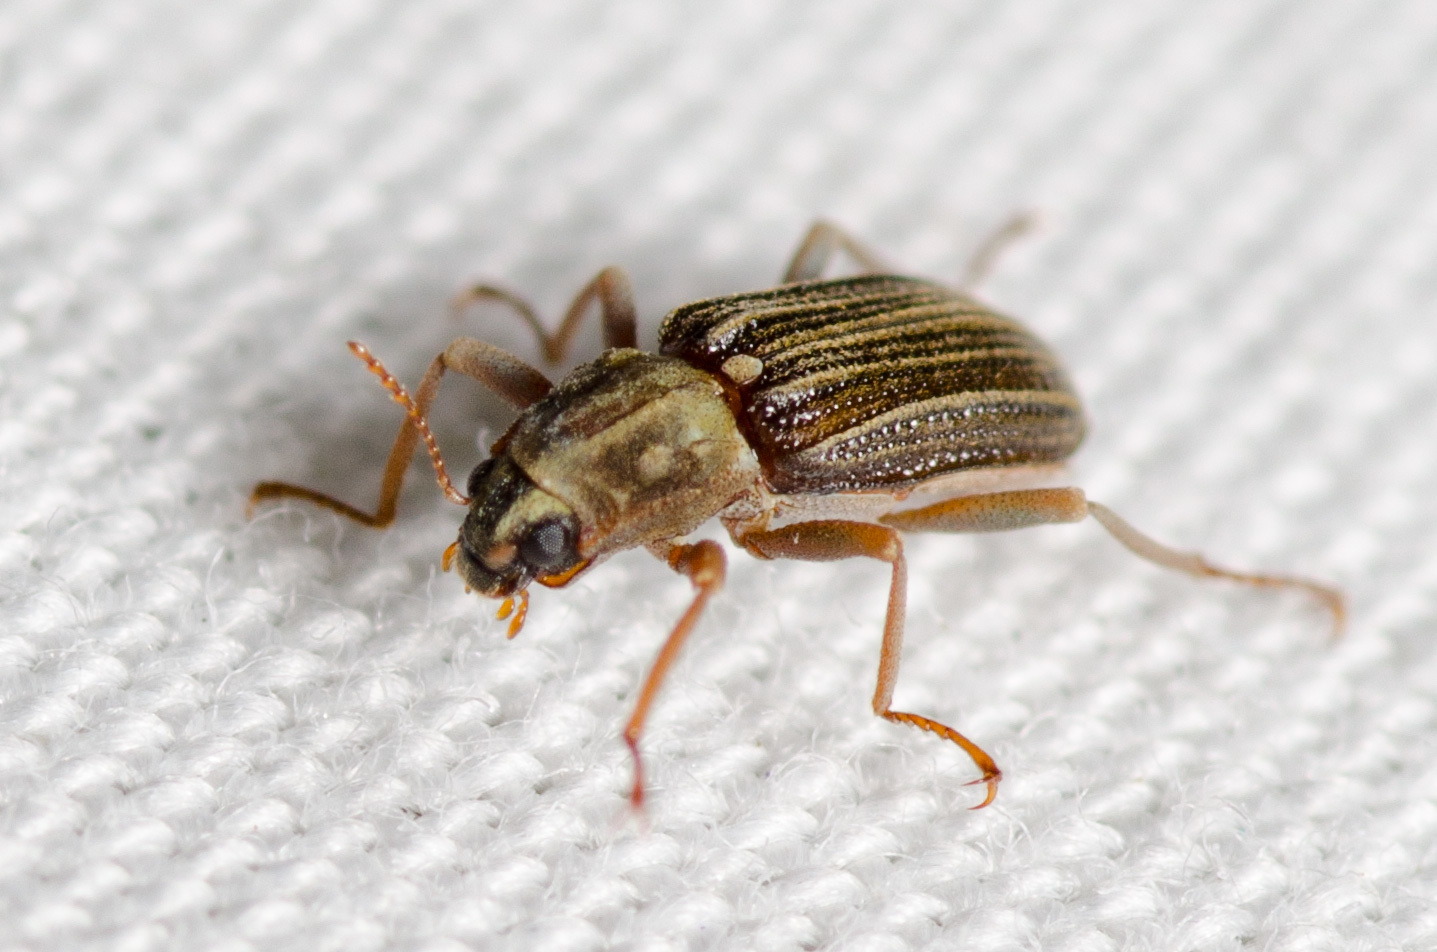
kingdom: Animalia
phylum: Arthropoda
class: Insecta
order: Coleoptera
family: Elmidae
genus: Stenelmis
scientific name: Stenelmis
